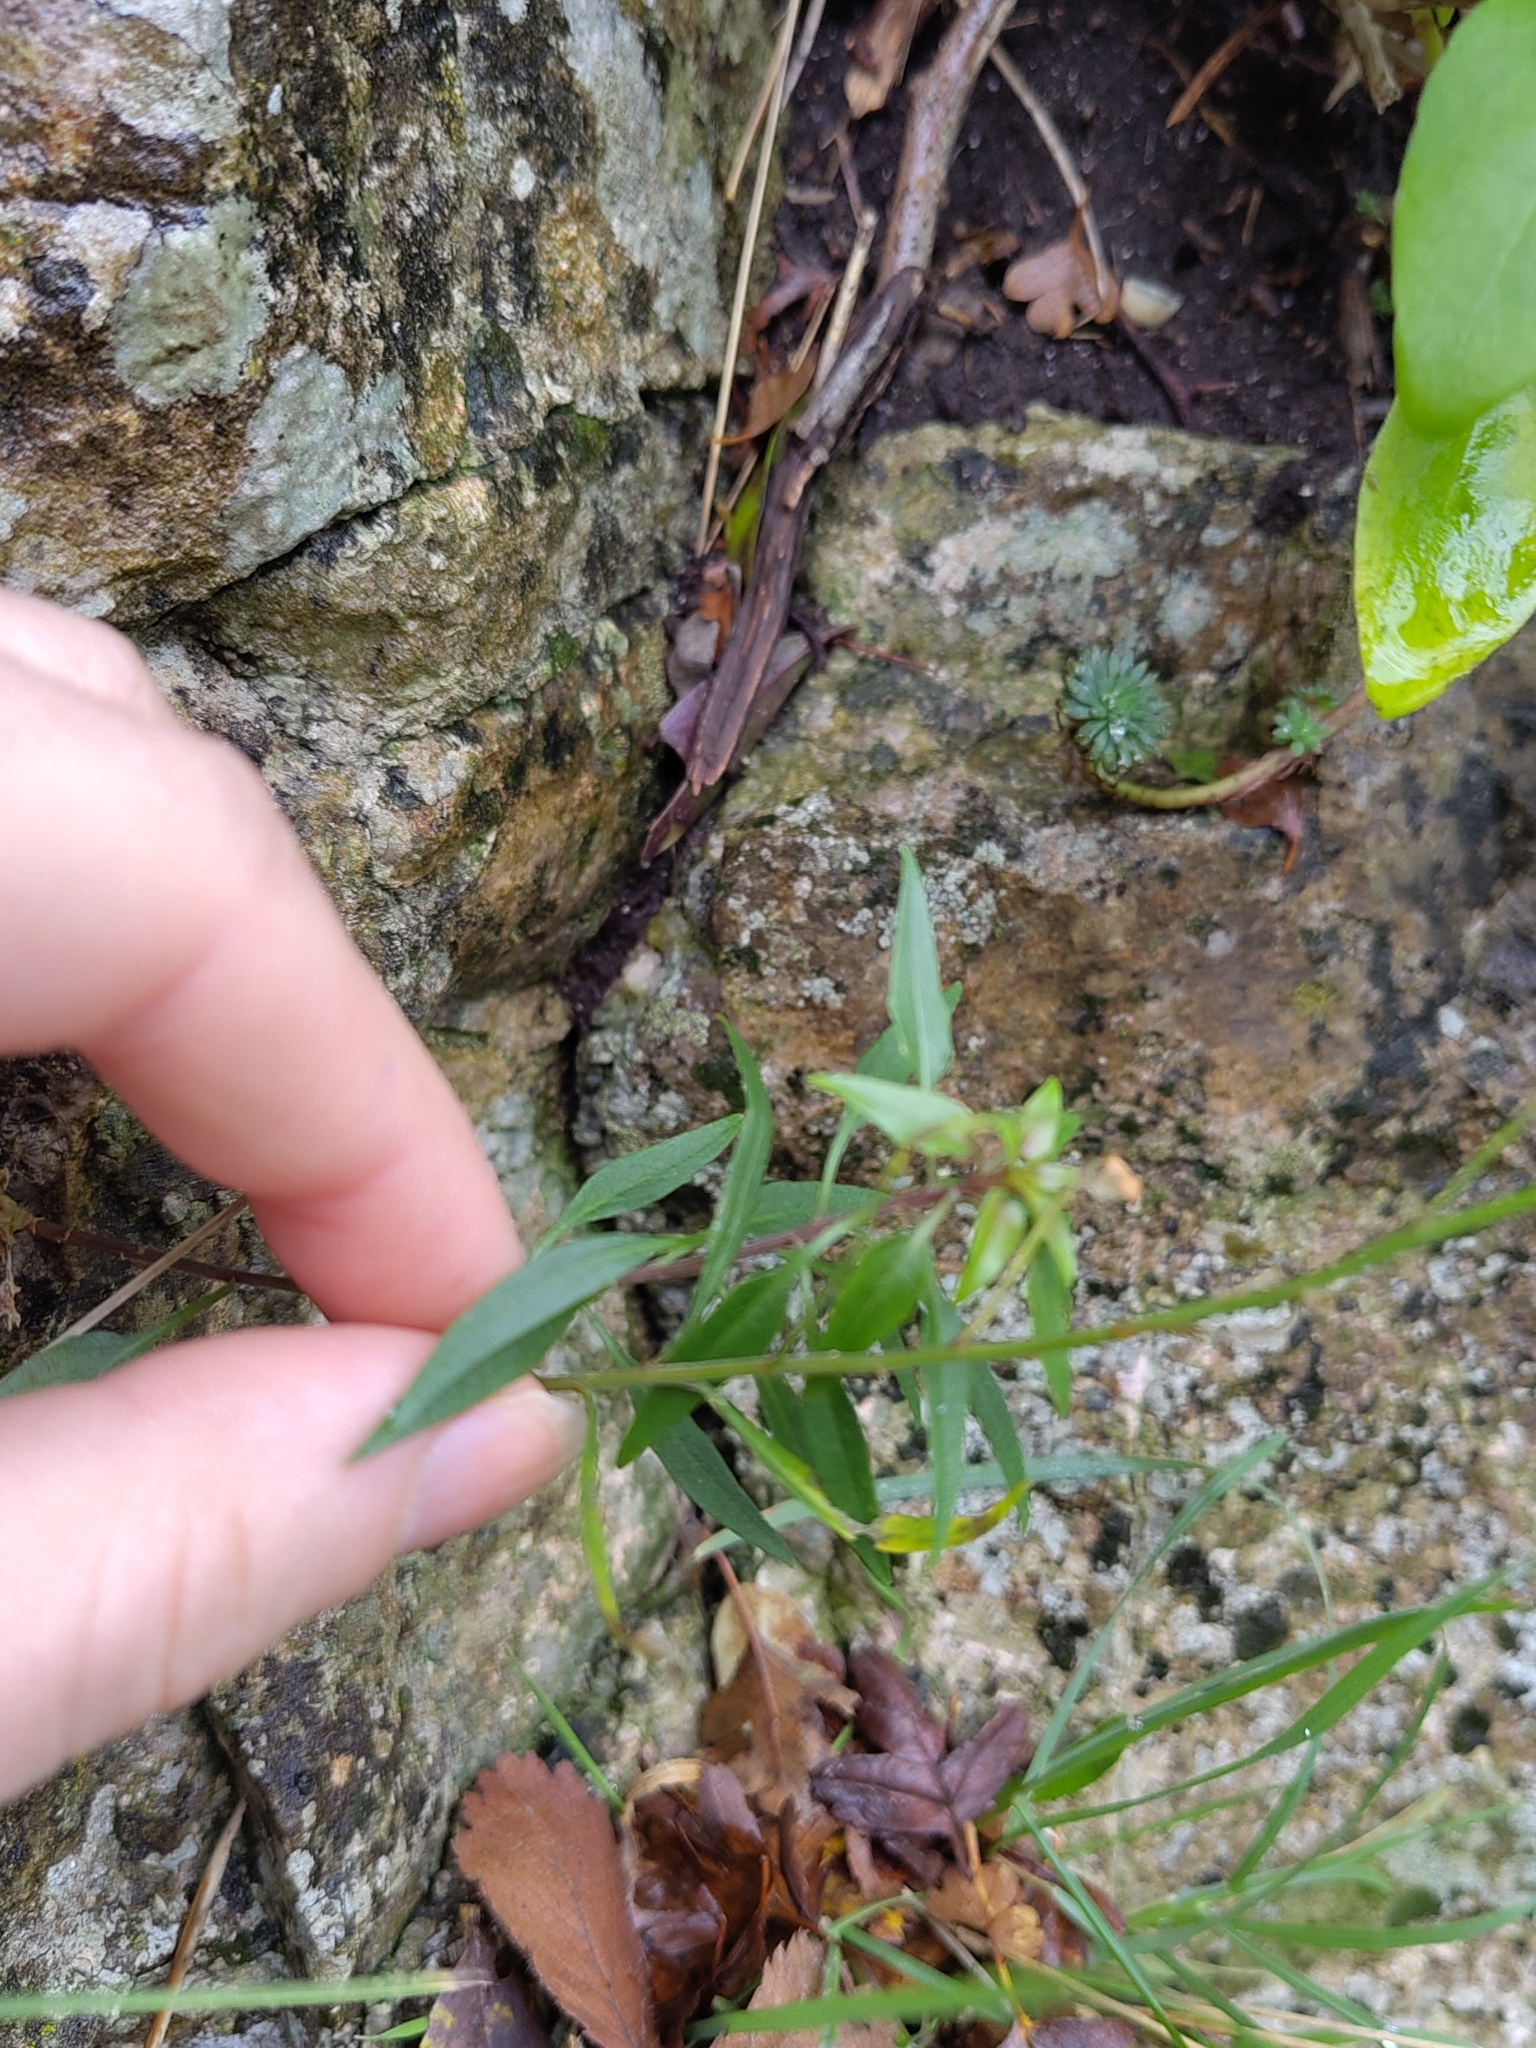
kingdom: Plantae
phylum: Tracheophyta
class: Magnoliopsida
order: Asterales
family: Campanulaceae
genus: Campanula
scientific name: Campanula rotundifolia
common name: Harebell
